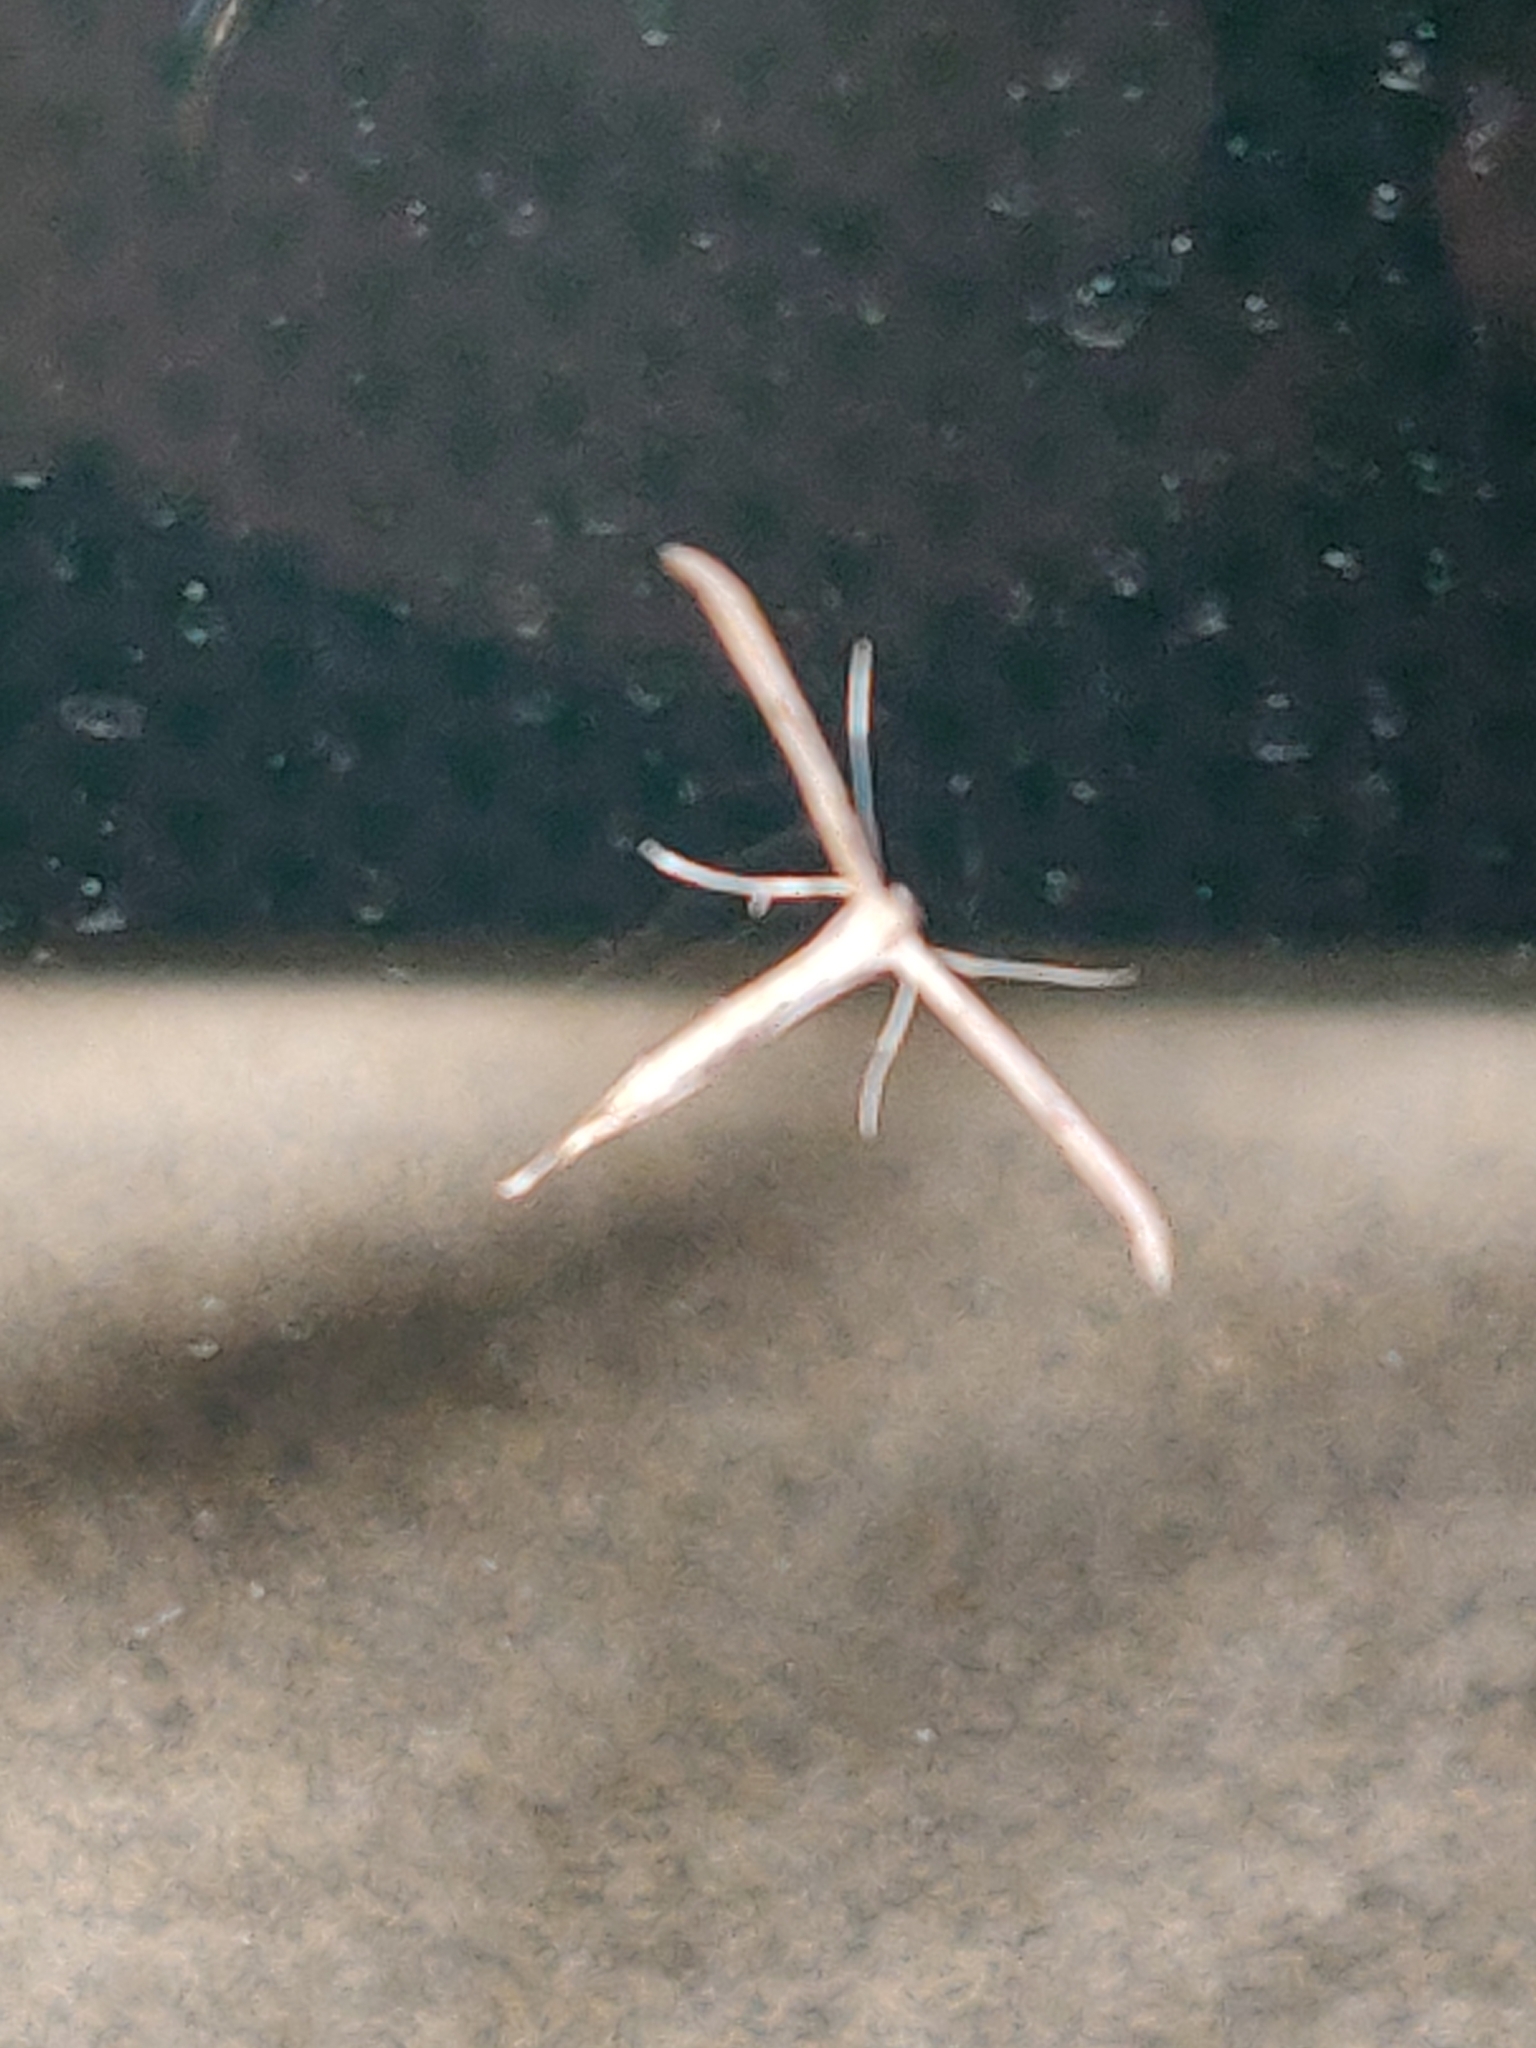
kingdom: Animalia
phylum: Arthropoda
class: Insecta
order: Lepidoptera
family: Pterophoridae
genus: Emmelina
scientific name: Emmelina monodactyla
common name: Common plume
